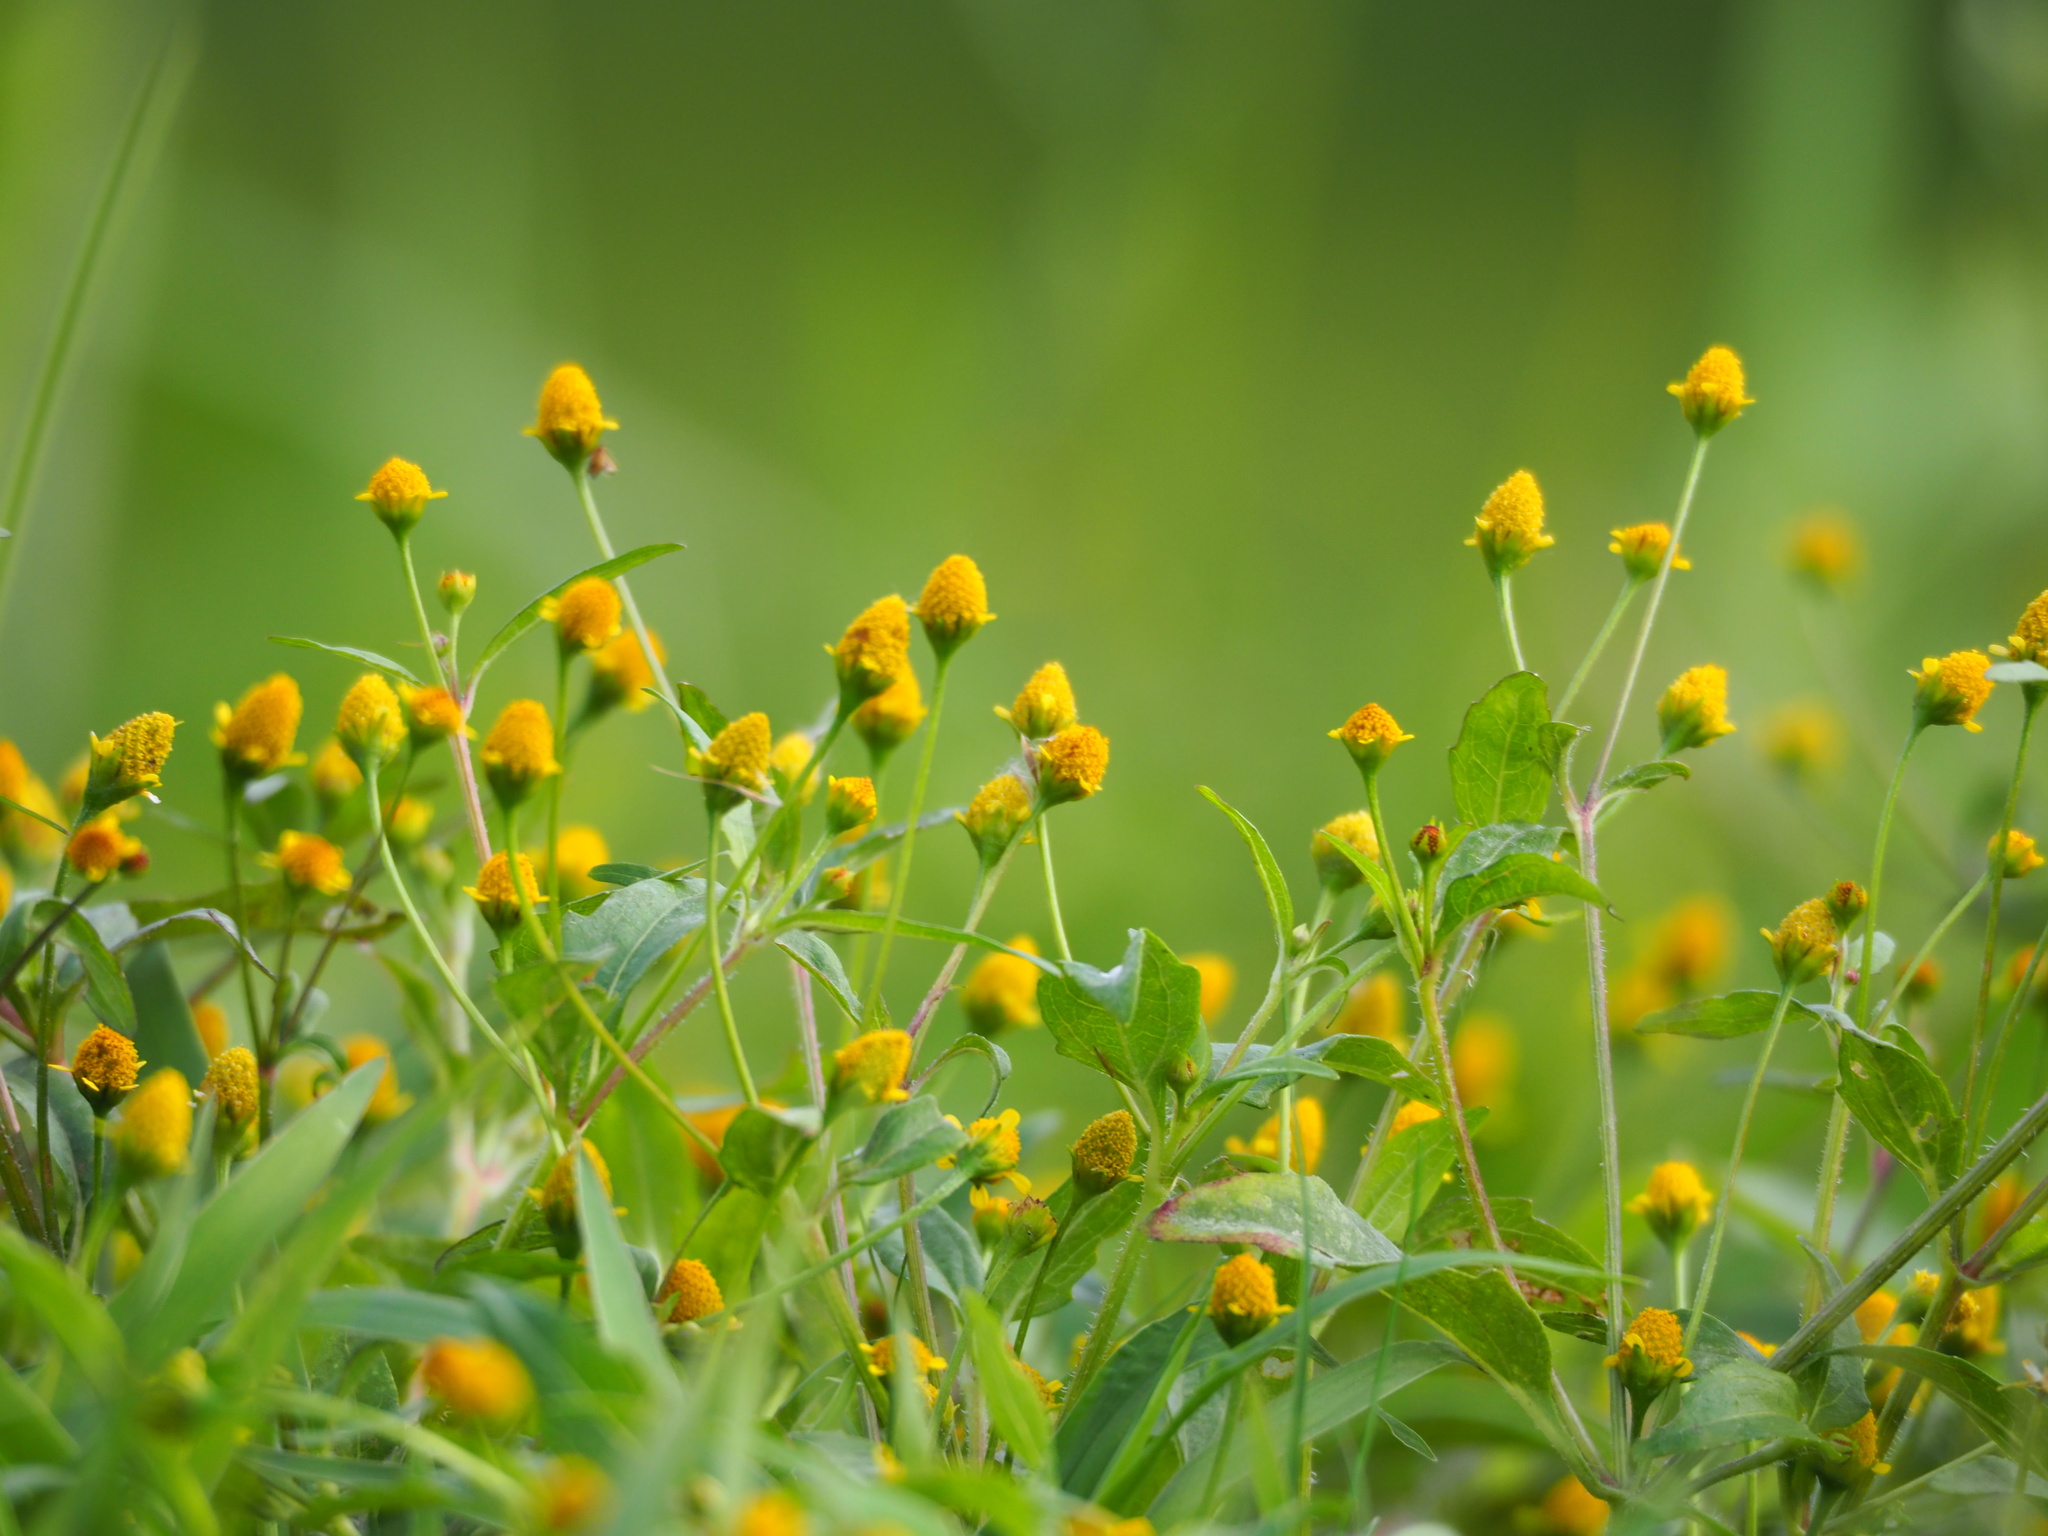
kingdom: Plantae
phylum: Tracheophyta
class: Magnoliopsida
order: Asterales
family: Asteraceae
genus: Acmella
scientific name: Acmella uliginosa
